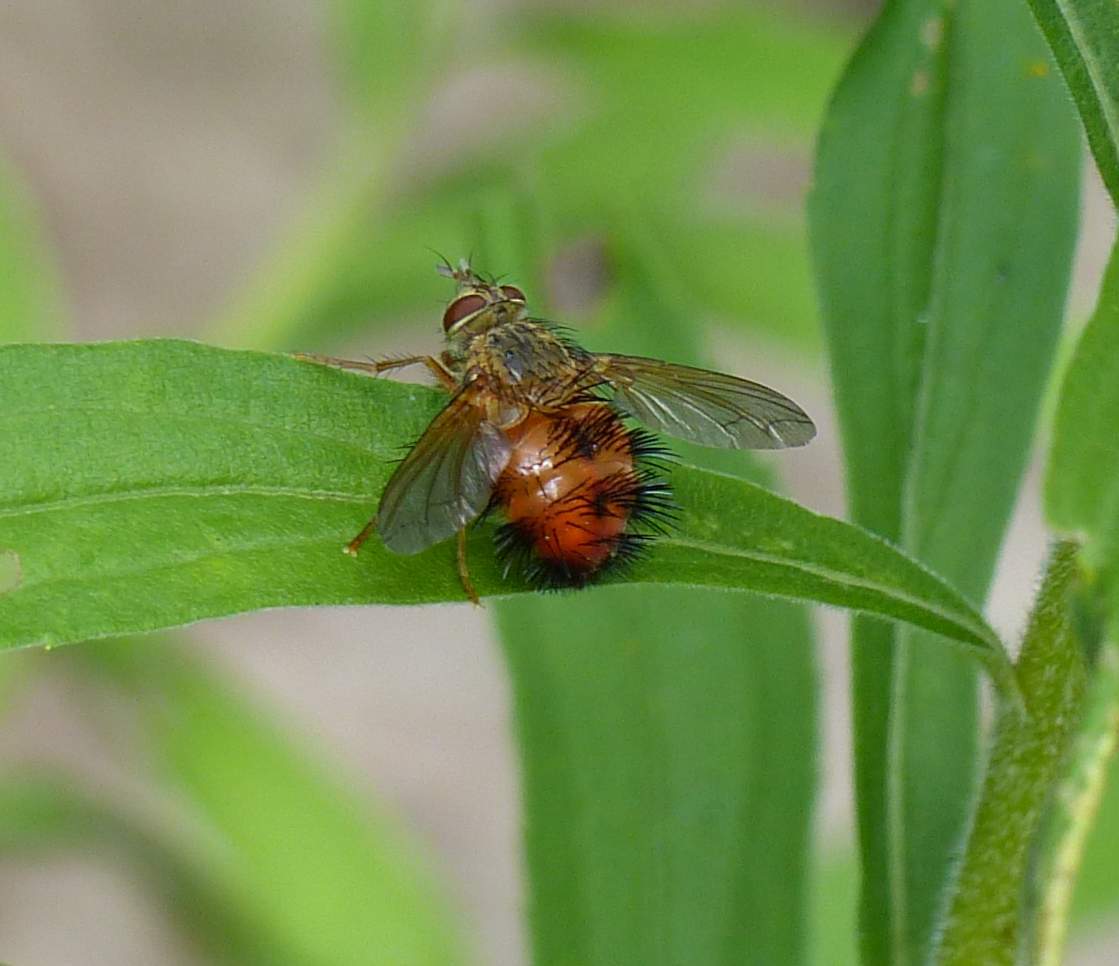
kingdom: Animalia
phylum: Arthropoda
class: Insecta
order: Diptera
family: Tachinidae
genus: Hystricia
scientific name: Hystricia abrupta
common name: Tomato bristle fly
